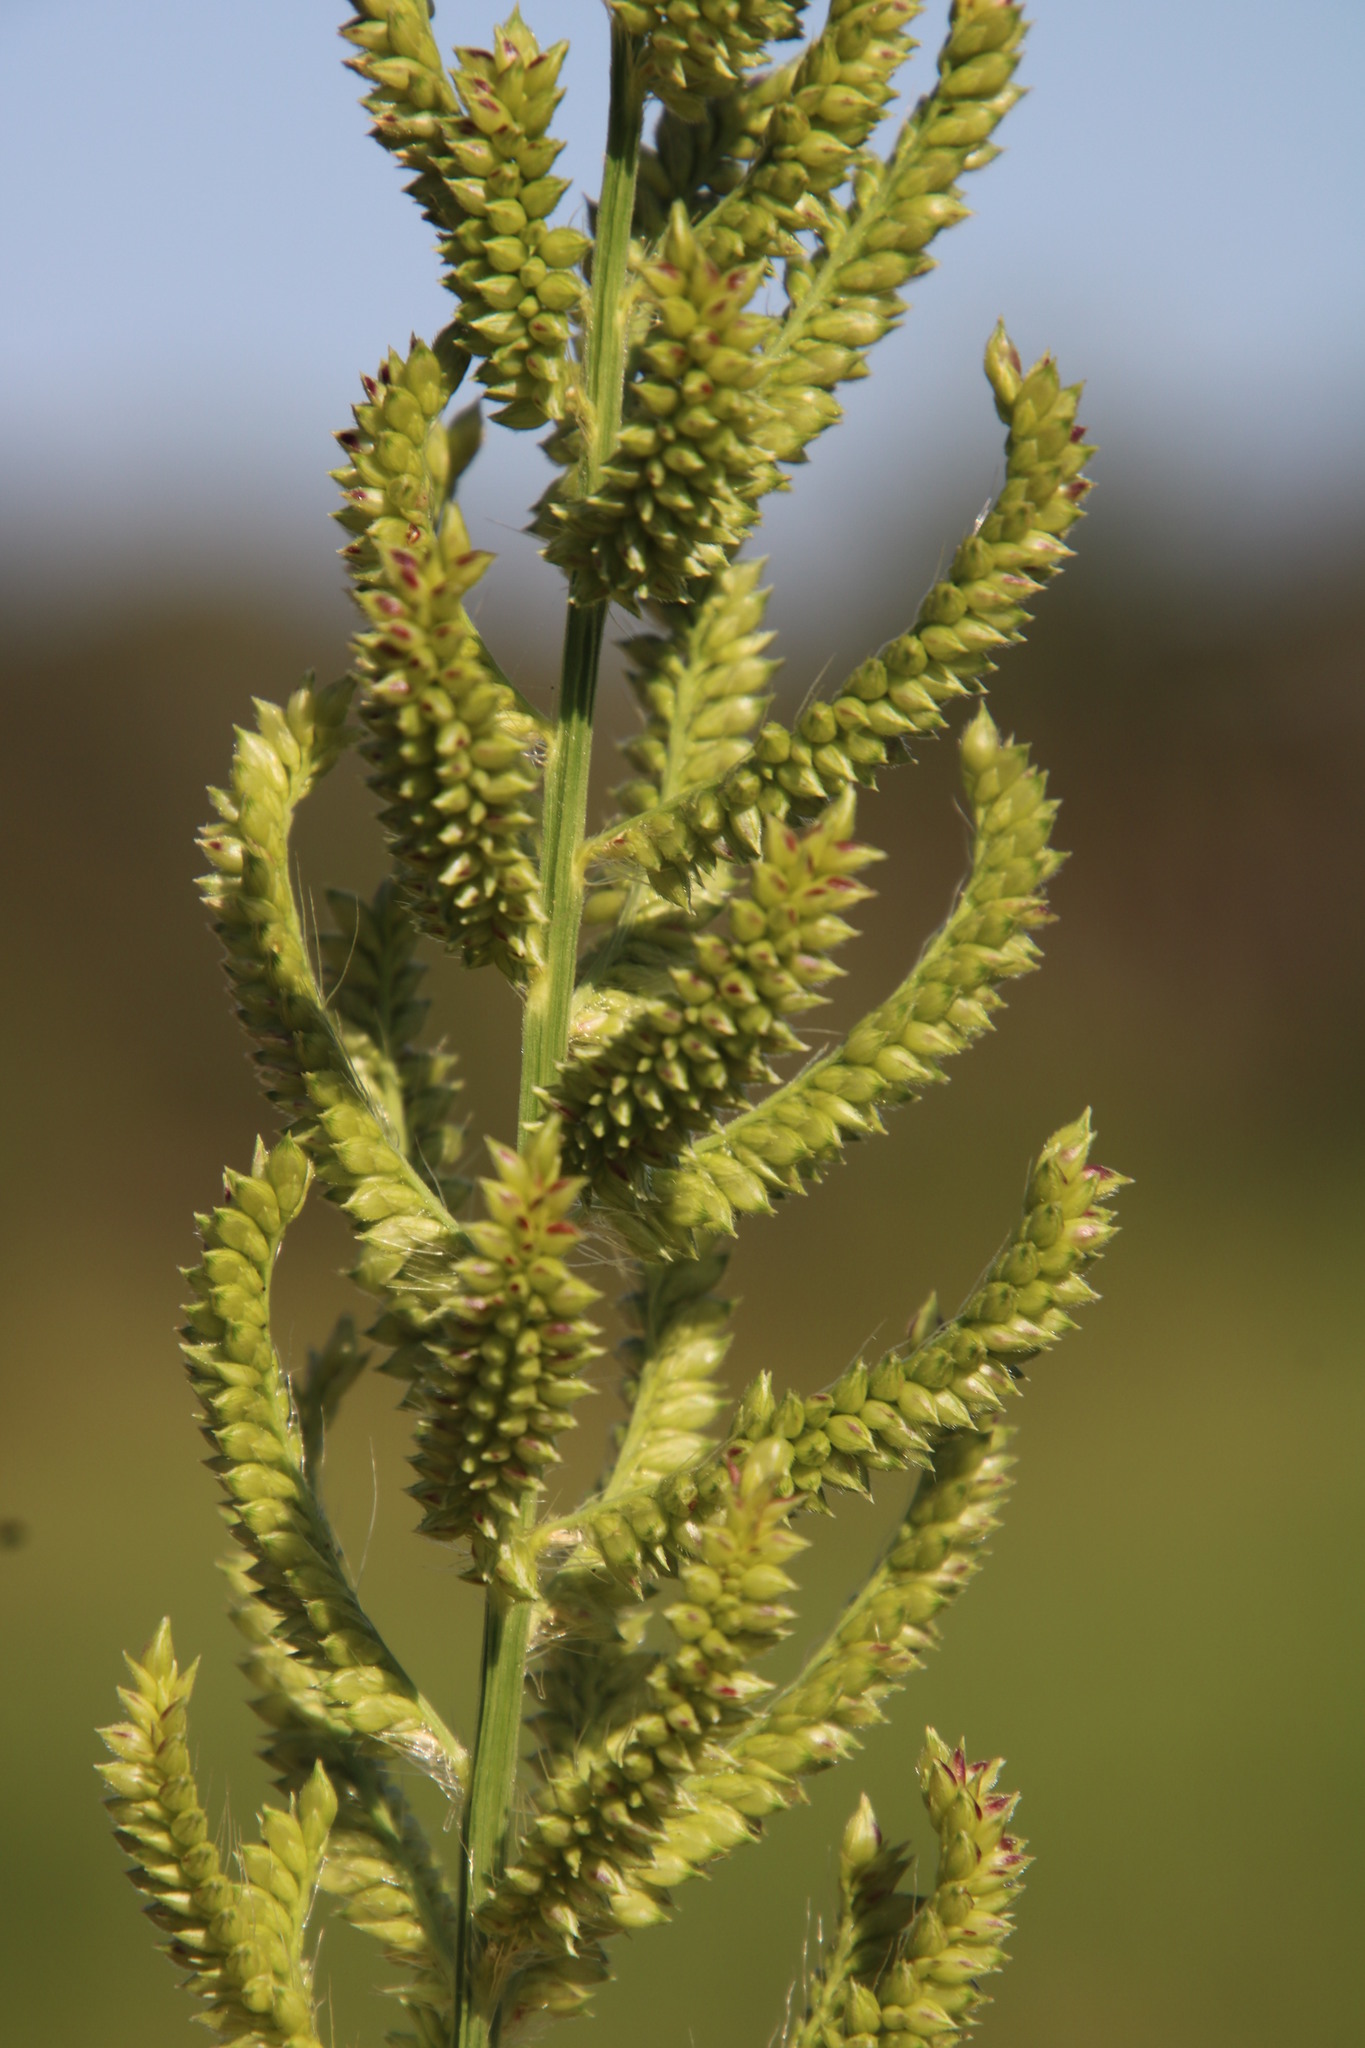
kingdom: Plantae
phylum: Tracheophyta
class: Liliopsida
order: Poales
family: Poaceae
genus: Echinochloa
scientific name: Echinochloa pyramidalis
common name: Antelope grass
